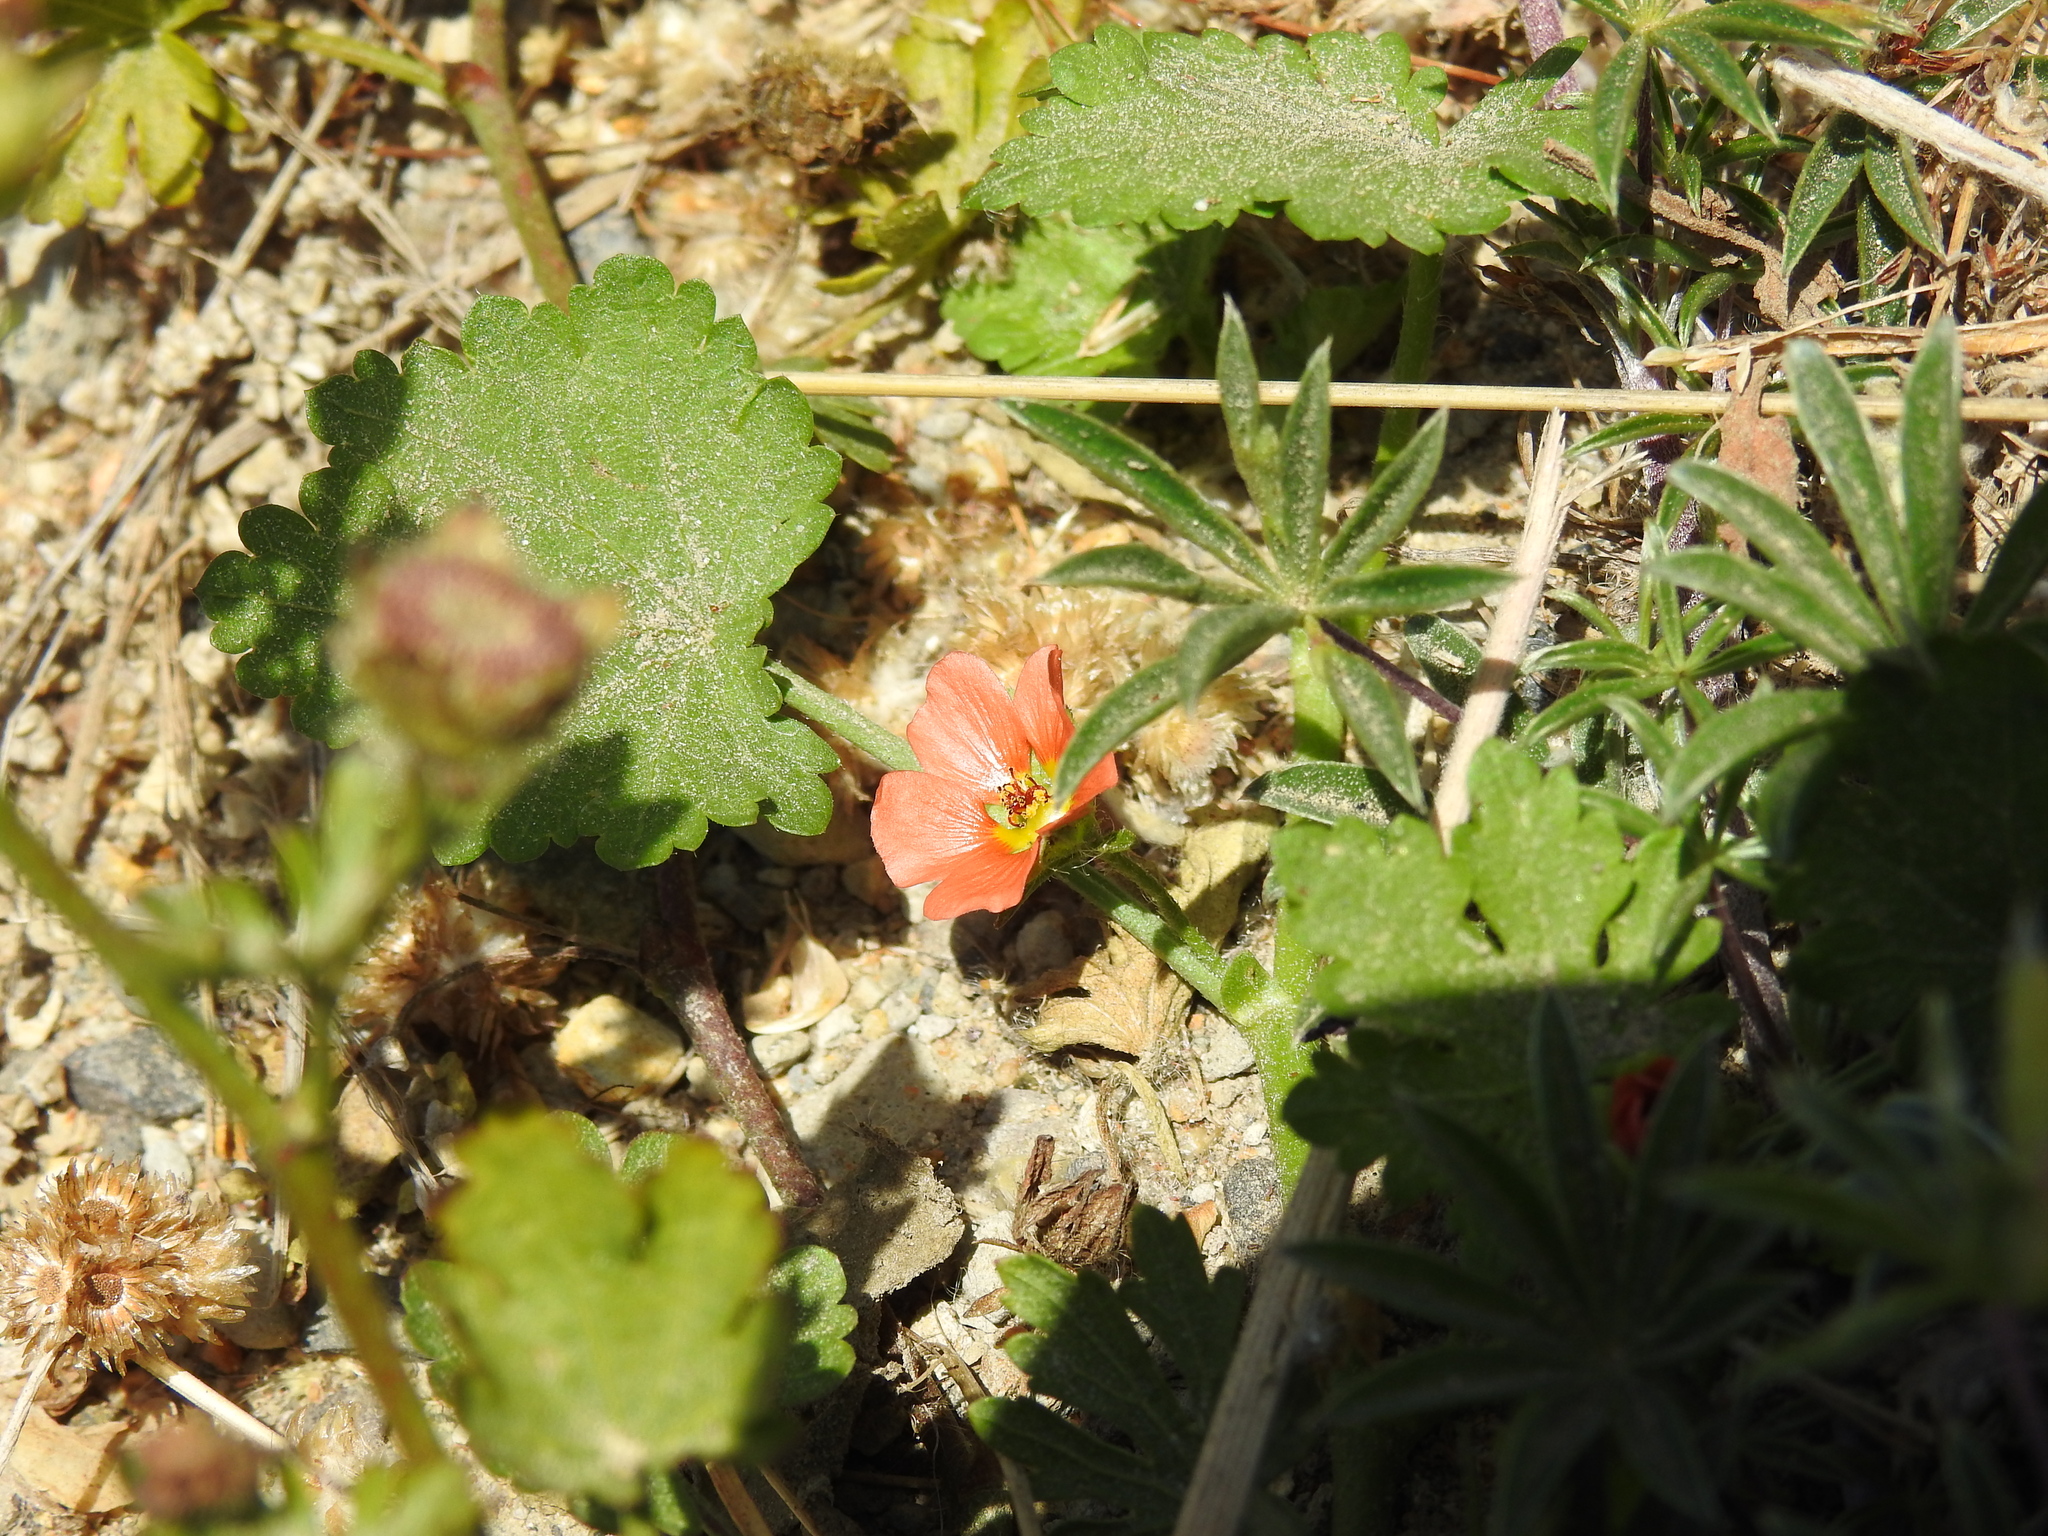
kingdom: Plantae
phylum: Tracheophyta
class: Magnoliopsida
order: Malvales
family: Malvaceae
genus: Modiola
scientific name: Modiola caroliniana
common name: Carolina bristlemallow
